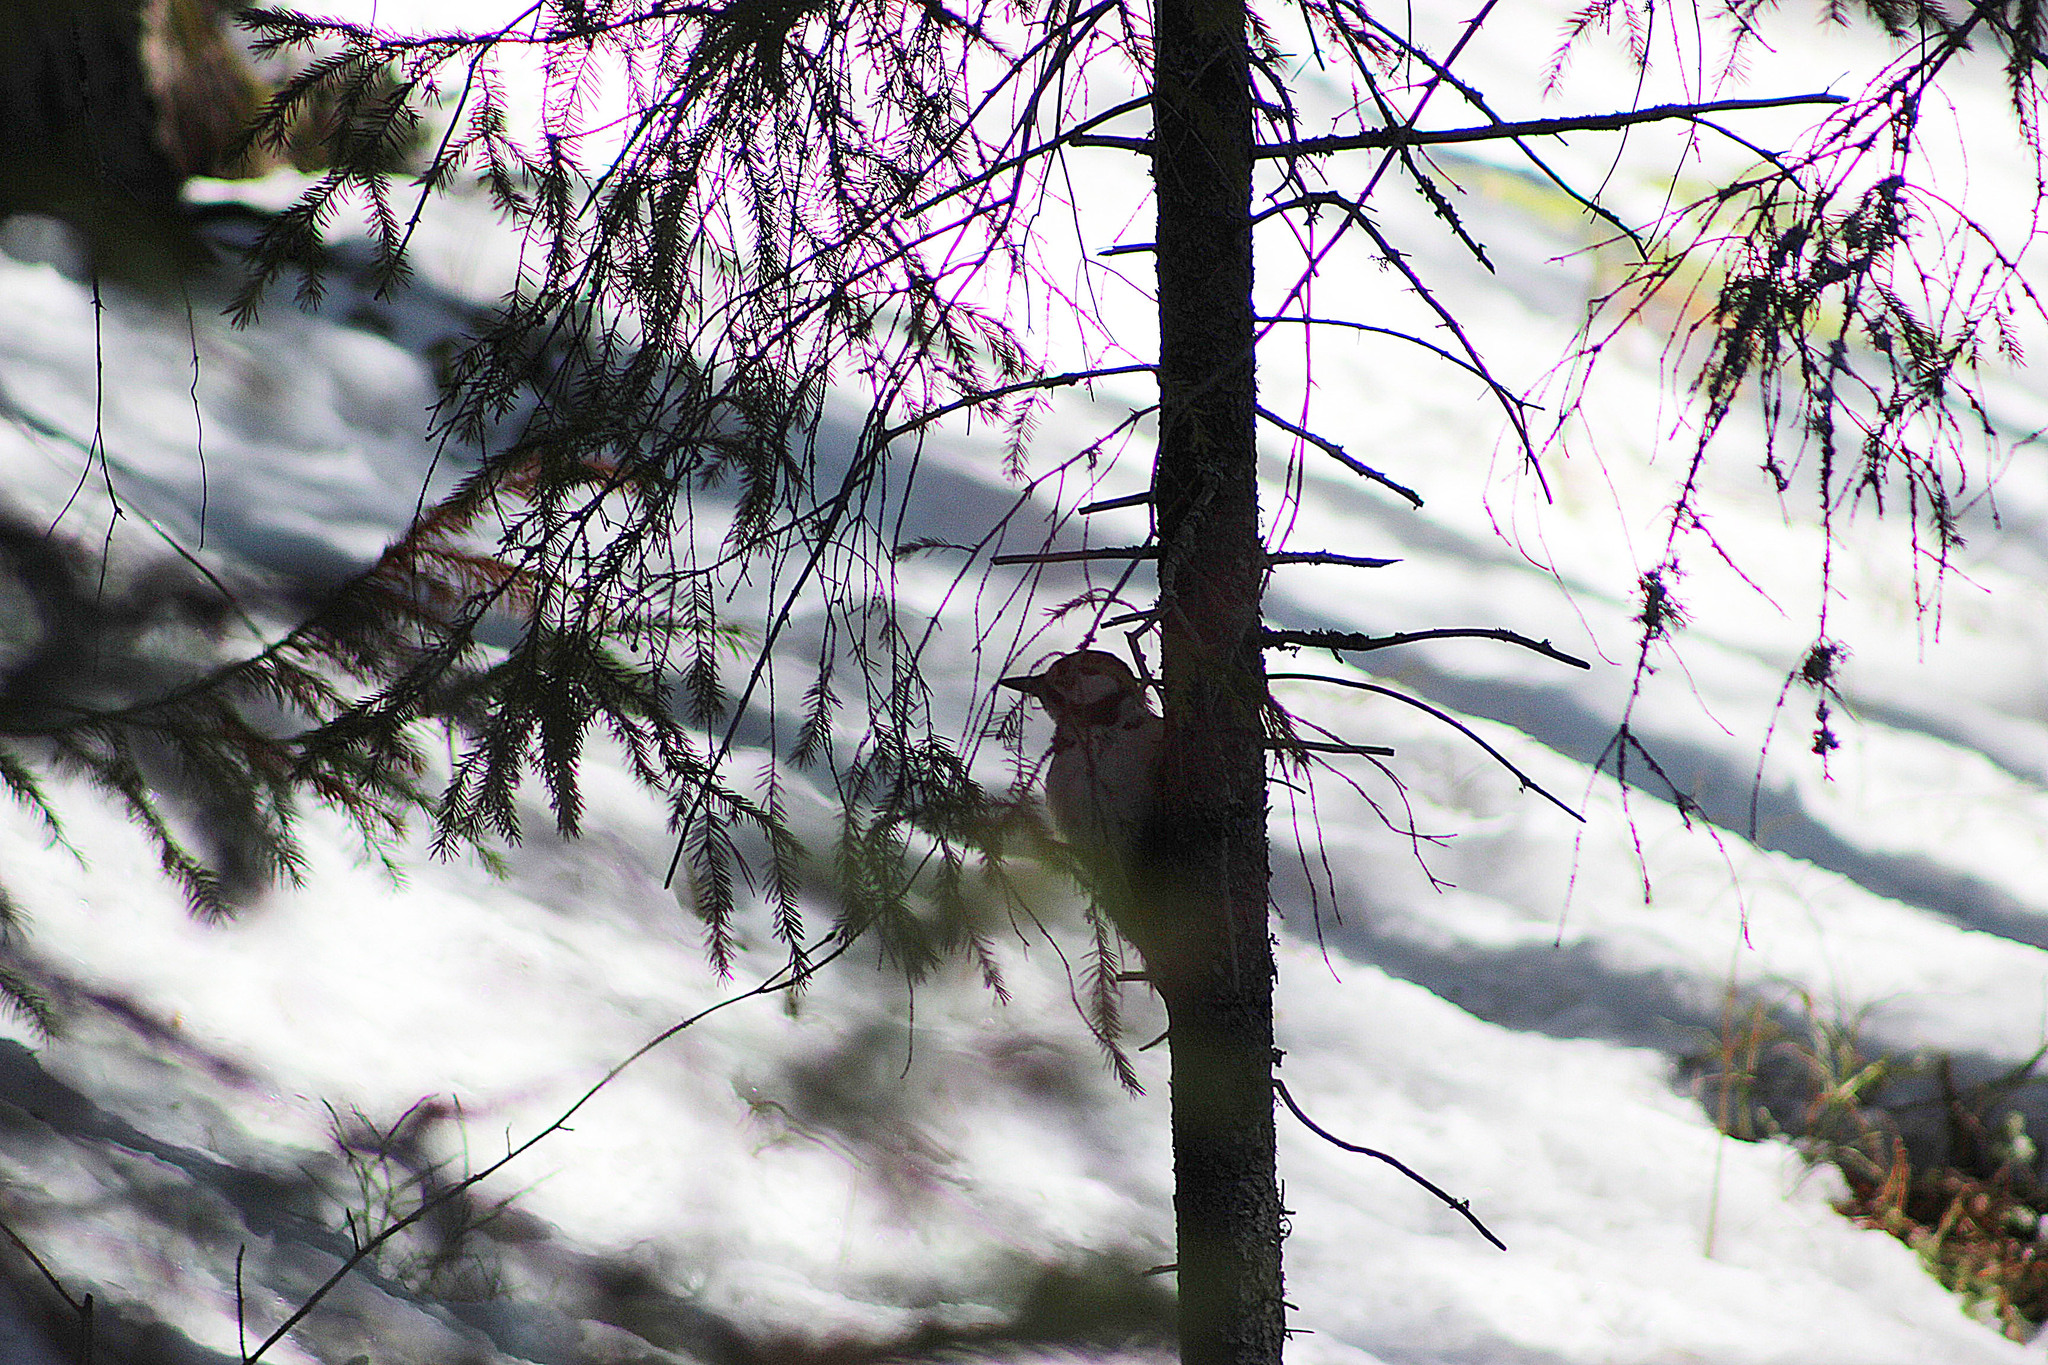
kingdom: Animalia
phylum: Chordata
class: Aves
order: Piciformes
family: Picidae
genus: Dendrocopos
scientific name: Dendrocopos major
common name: Great spotted woodpecker
